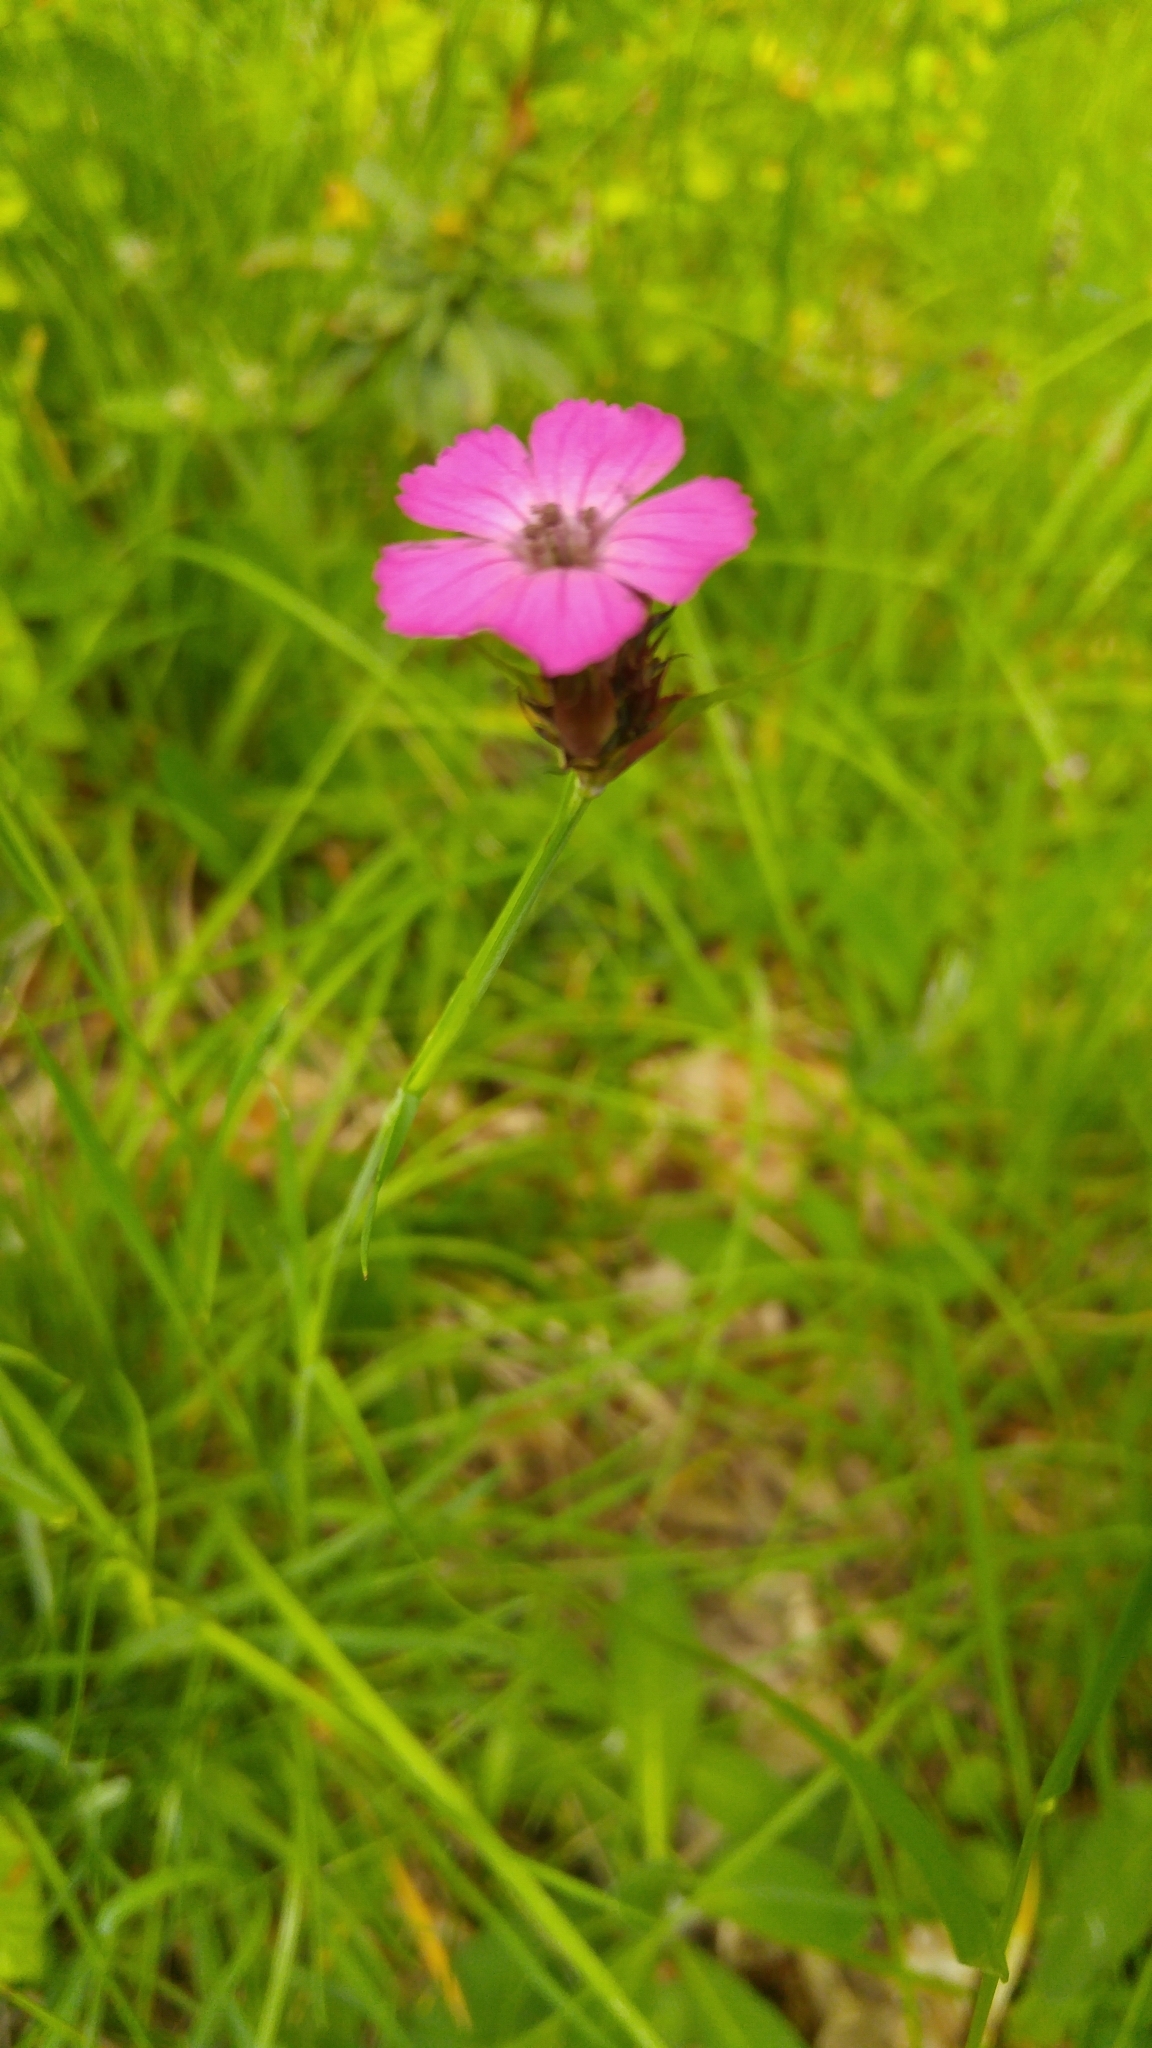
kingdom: Plantae
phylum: Tracheophyta
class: Magnoliopsida
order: Caryophyllales
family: Caryophyllaceae
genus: Dianthus
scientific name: Dianthus carthusianorum
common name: Carthusian pink
